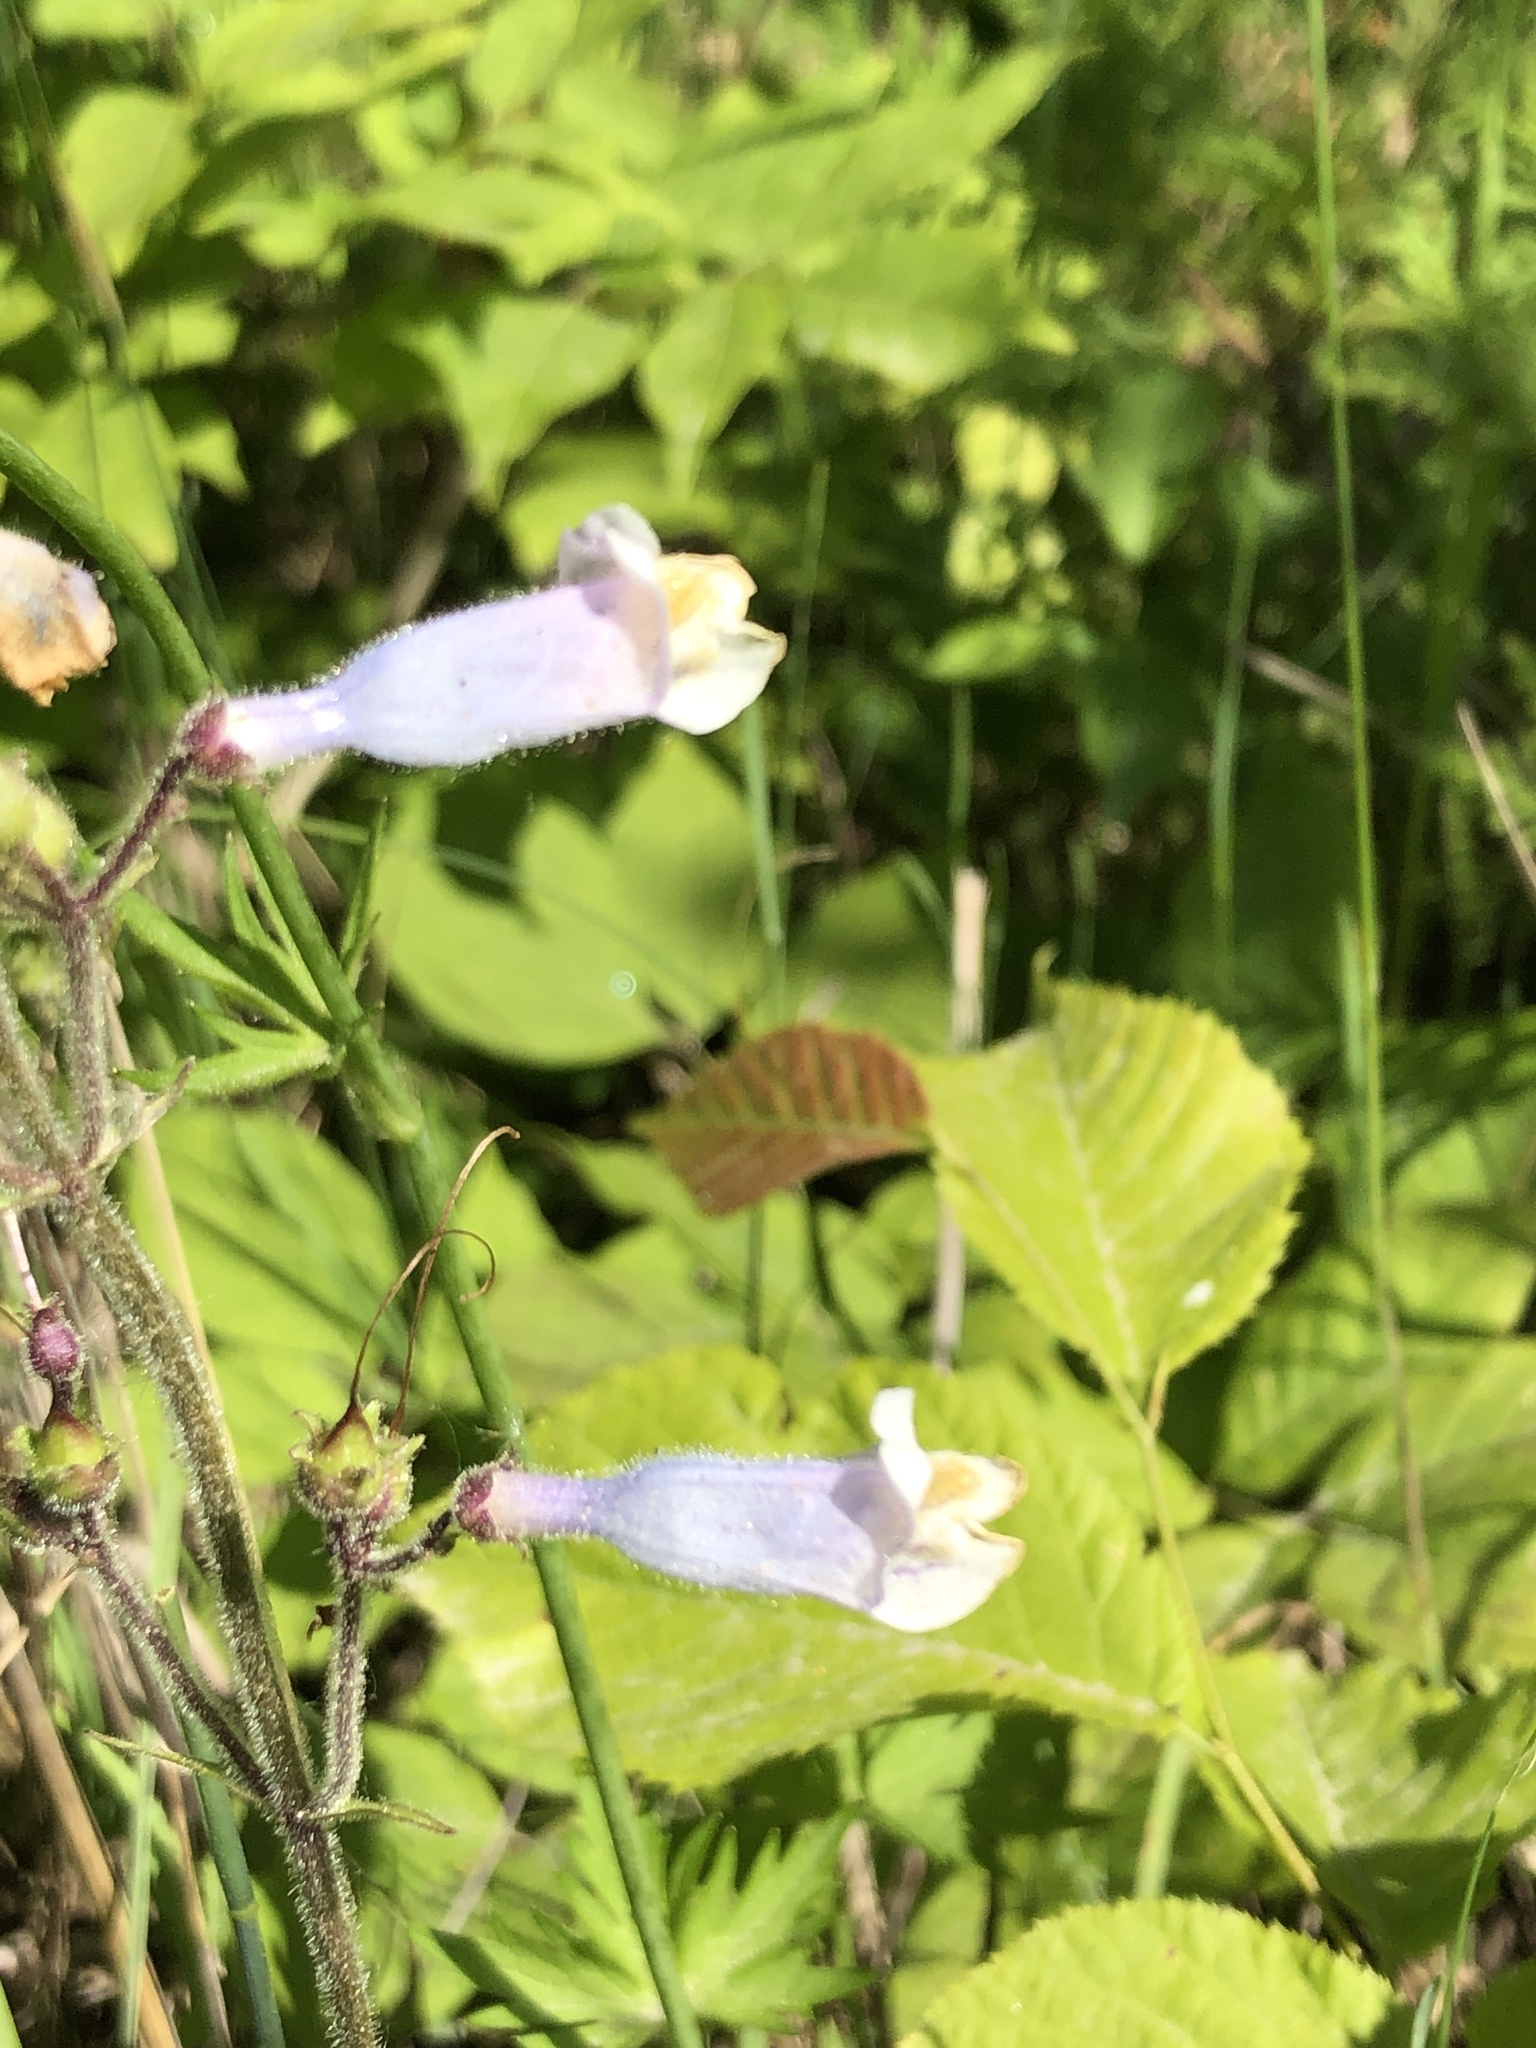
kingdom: Plantae
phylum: Tracheophyta
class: Magnoliopsida
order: Lamiales
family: Plantaginaceae
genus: Penstemon
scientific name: Penstemon hirsutus
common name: Hairy beardtongue
